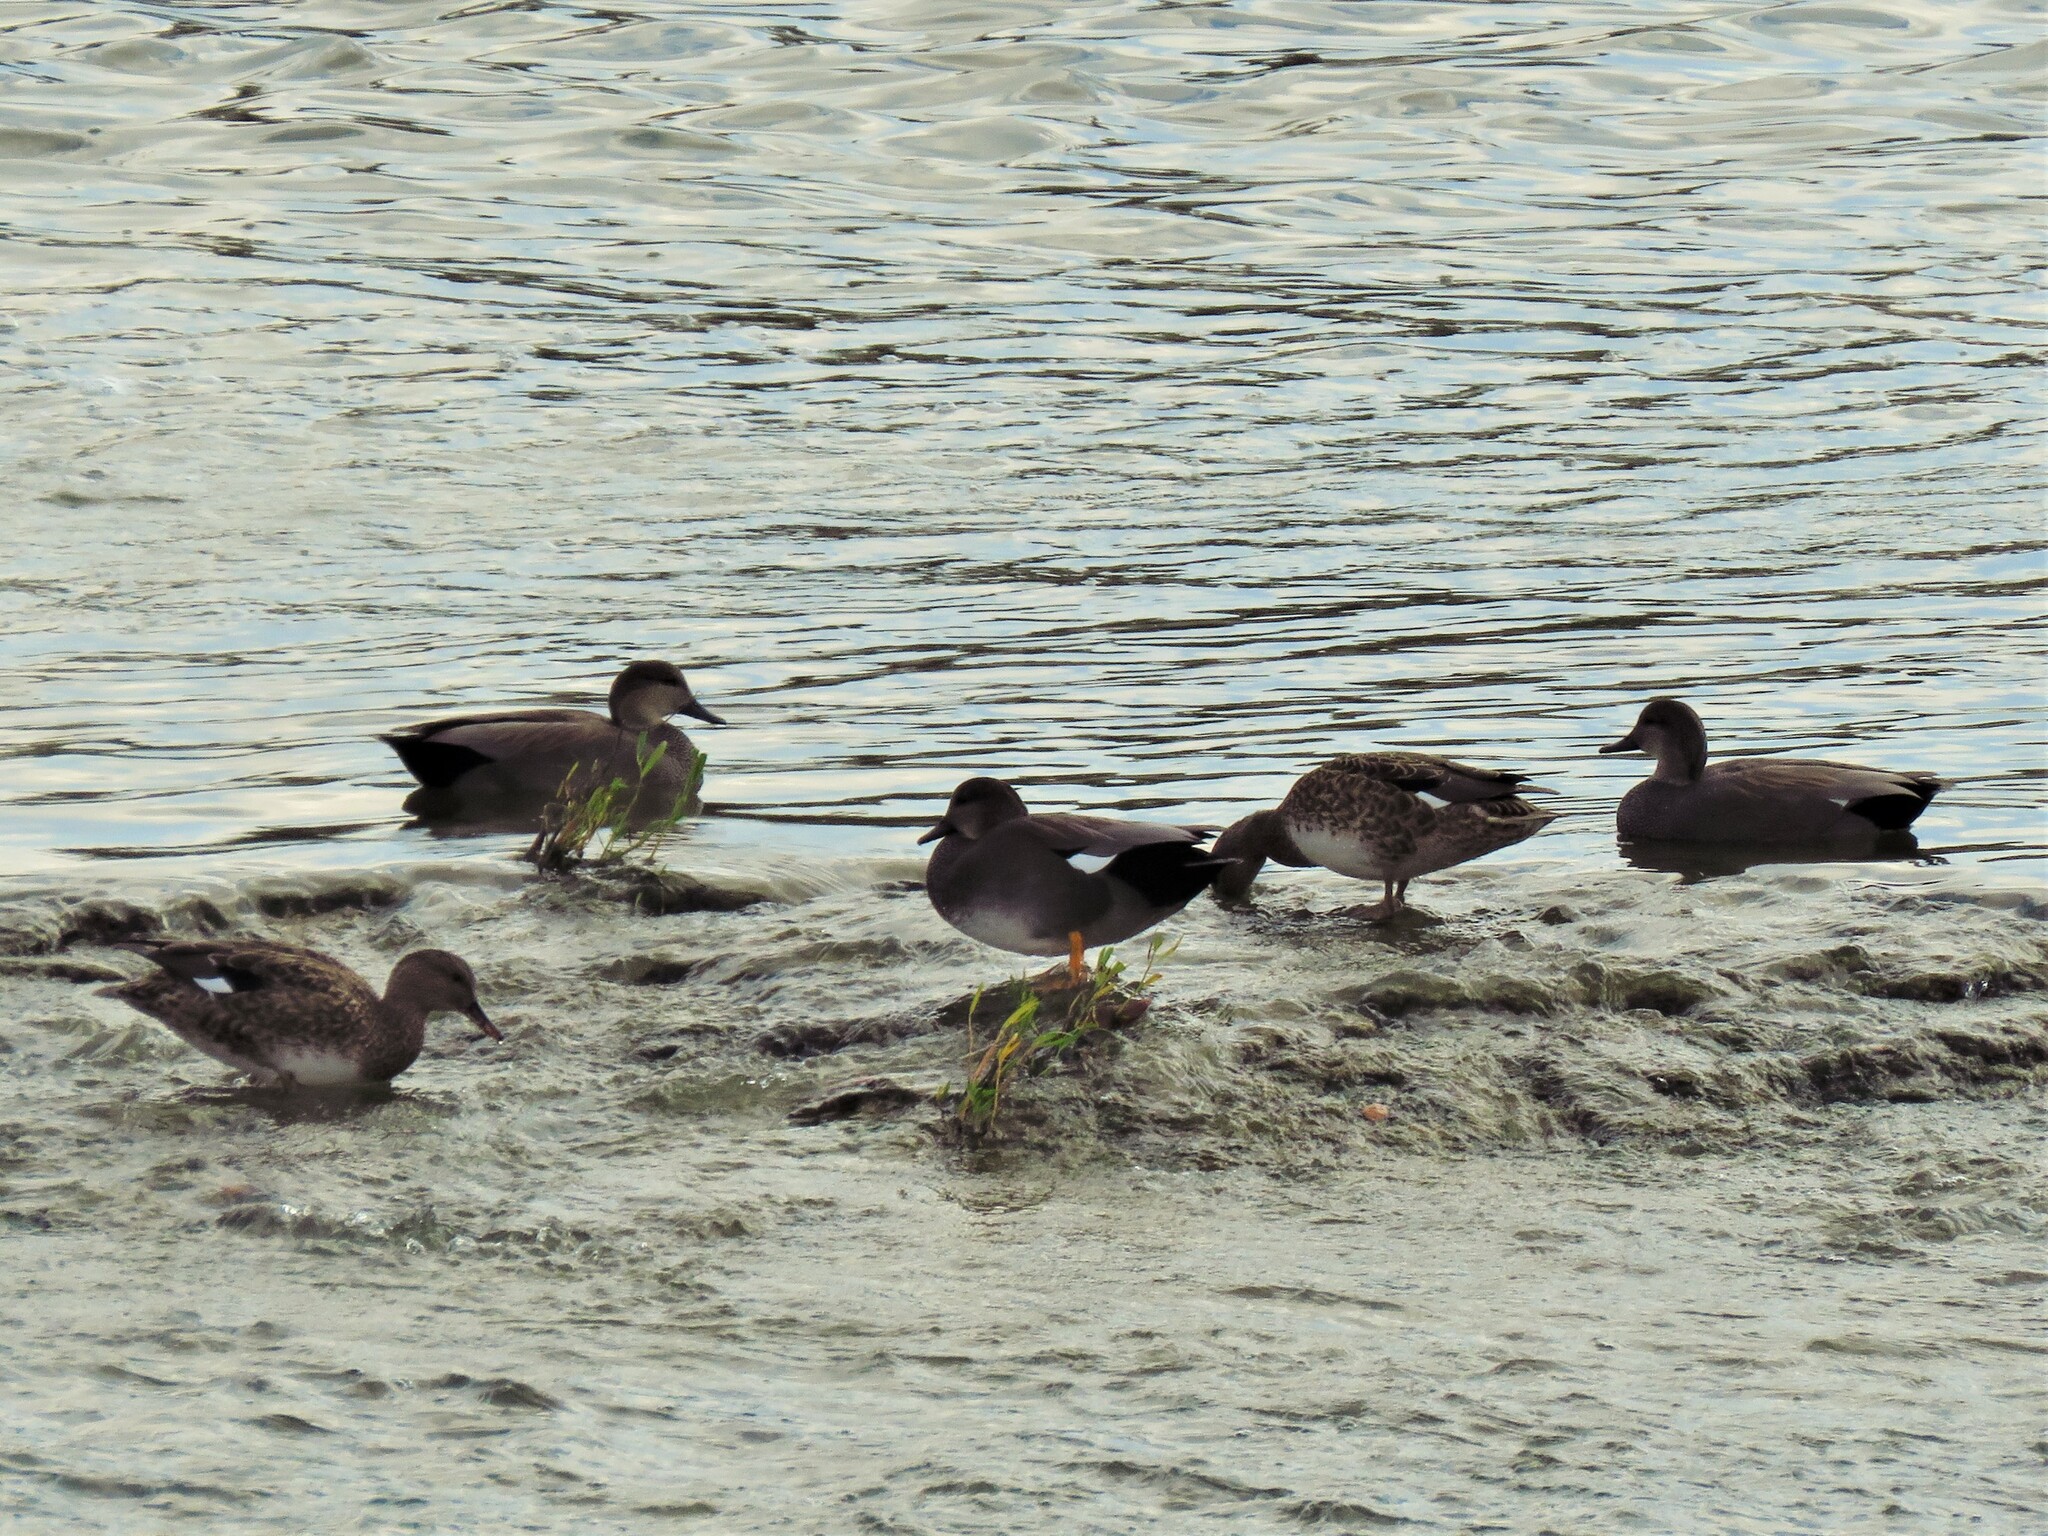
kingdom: Animalia
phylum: Chordata
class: Aves
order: Anseriformes
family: Anatidae
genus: Mareca
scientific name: Mareca strepera
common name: Gadwall
